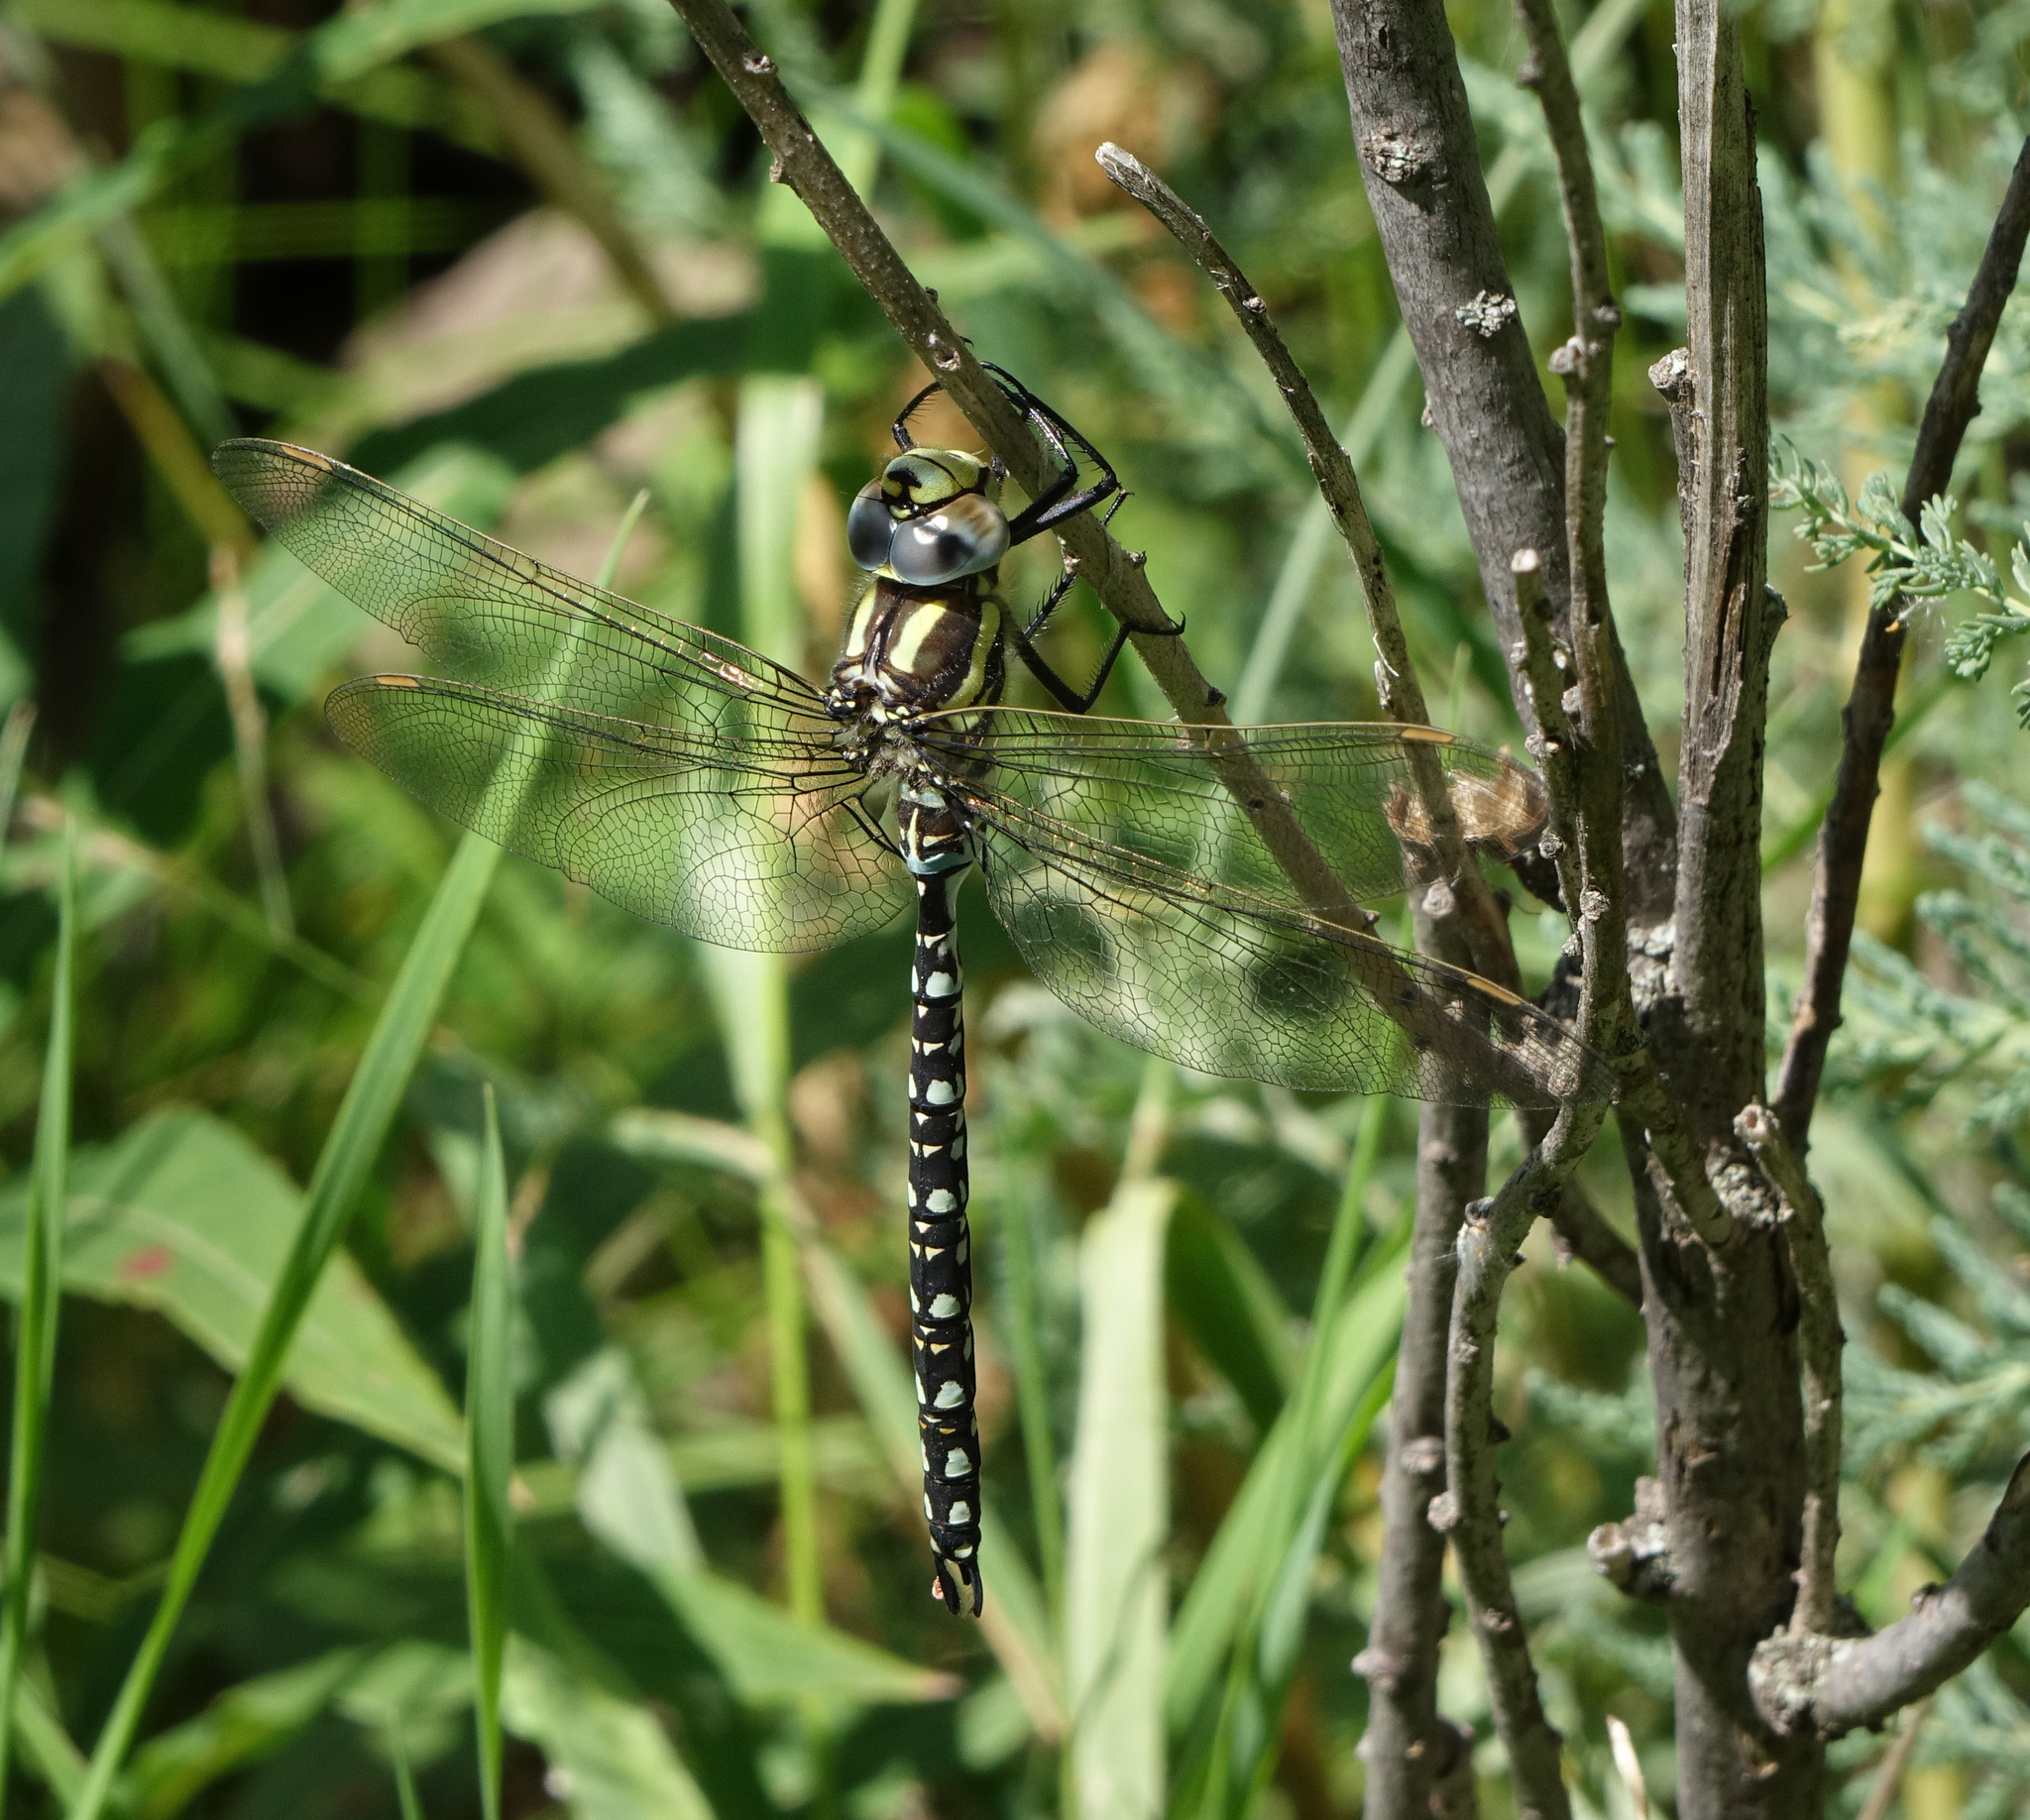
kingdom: Animalia
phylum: Arthropoda
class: Insecta
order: Odonata
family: Aeshnidae
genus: Aeshna
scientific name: Aeshna juncea
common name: Moorland hawker
